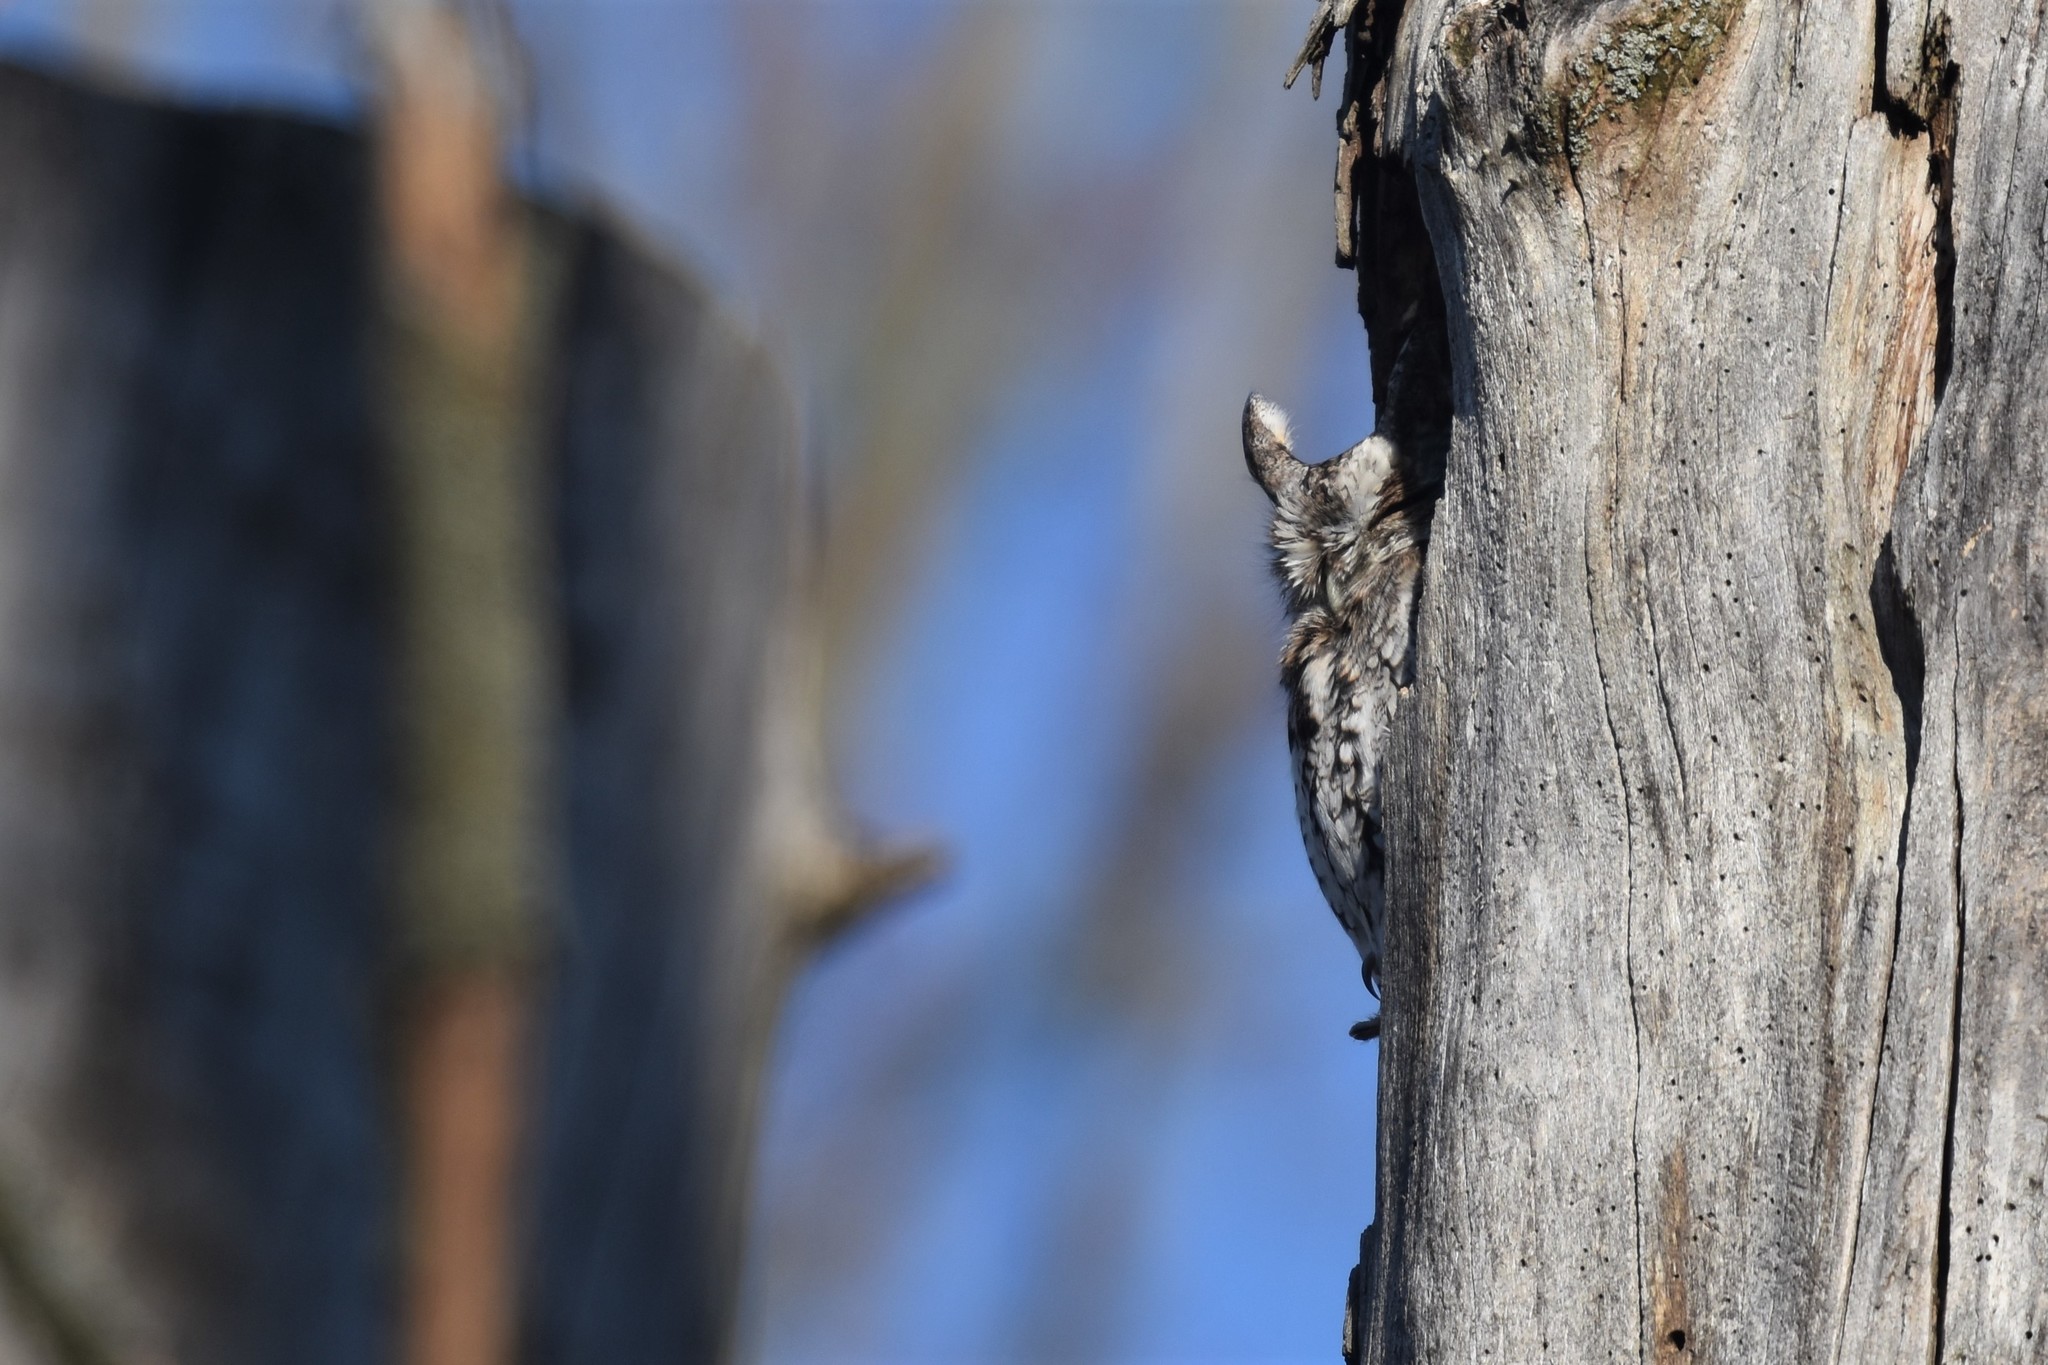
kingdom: Animalia
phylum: Chordata
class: Aves
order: Strigiformes
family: Strigidae
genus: Megascops
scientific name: Megascops asio
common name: Eastern screech-owl
